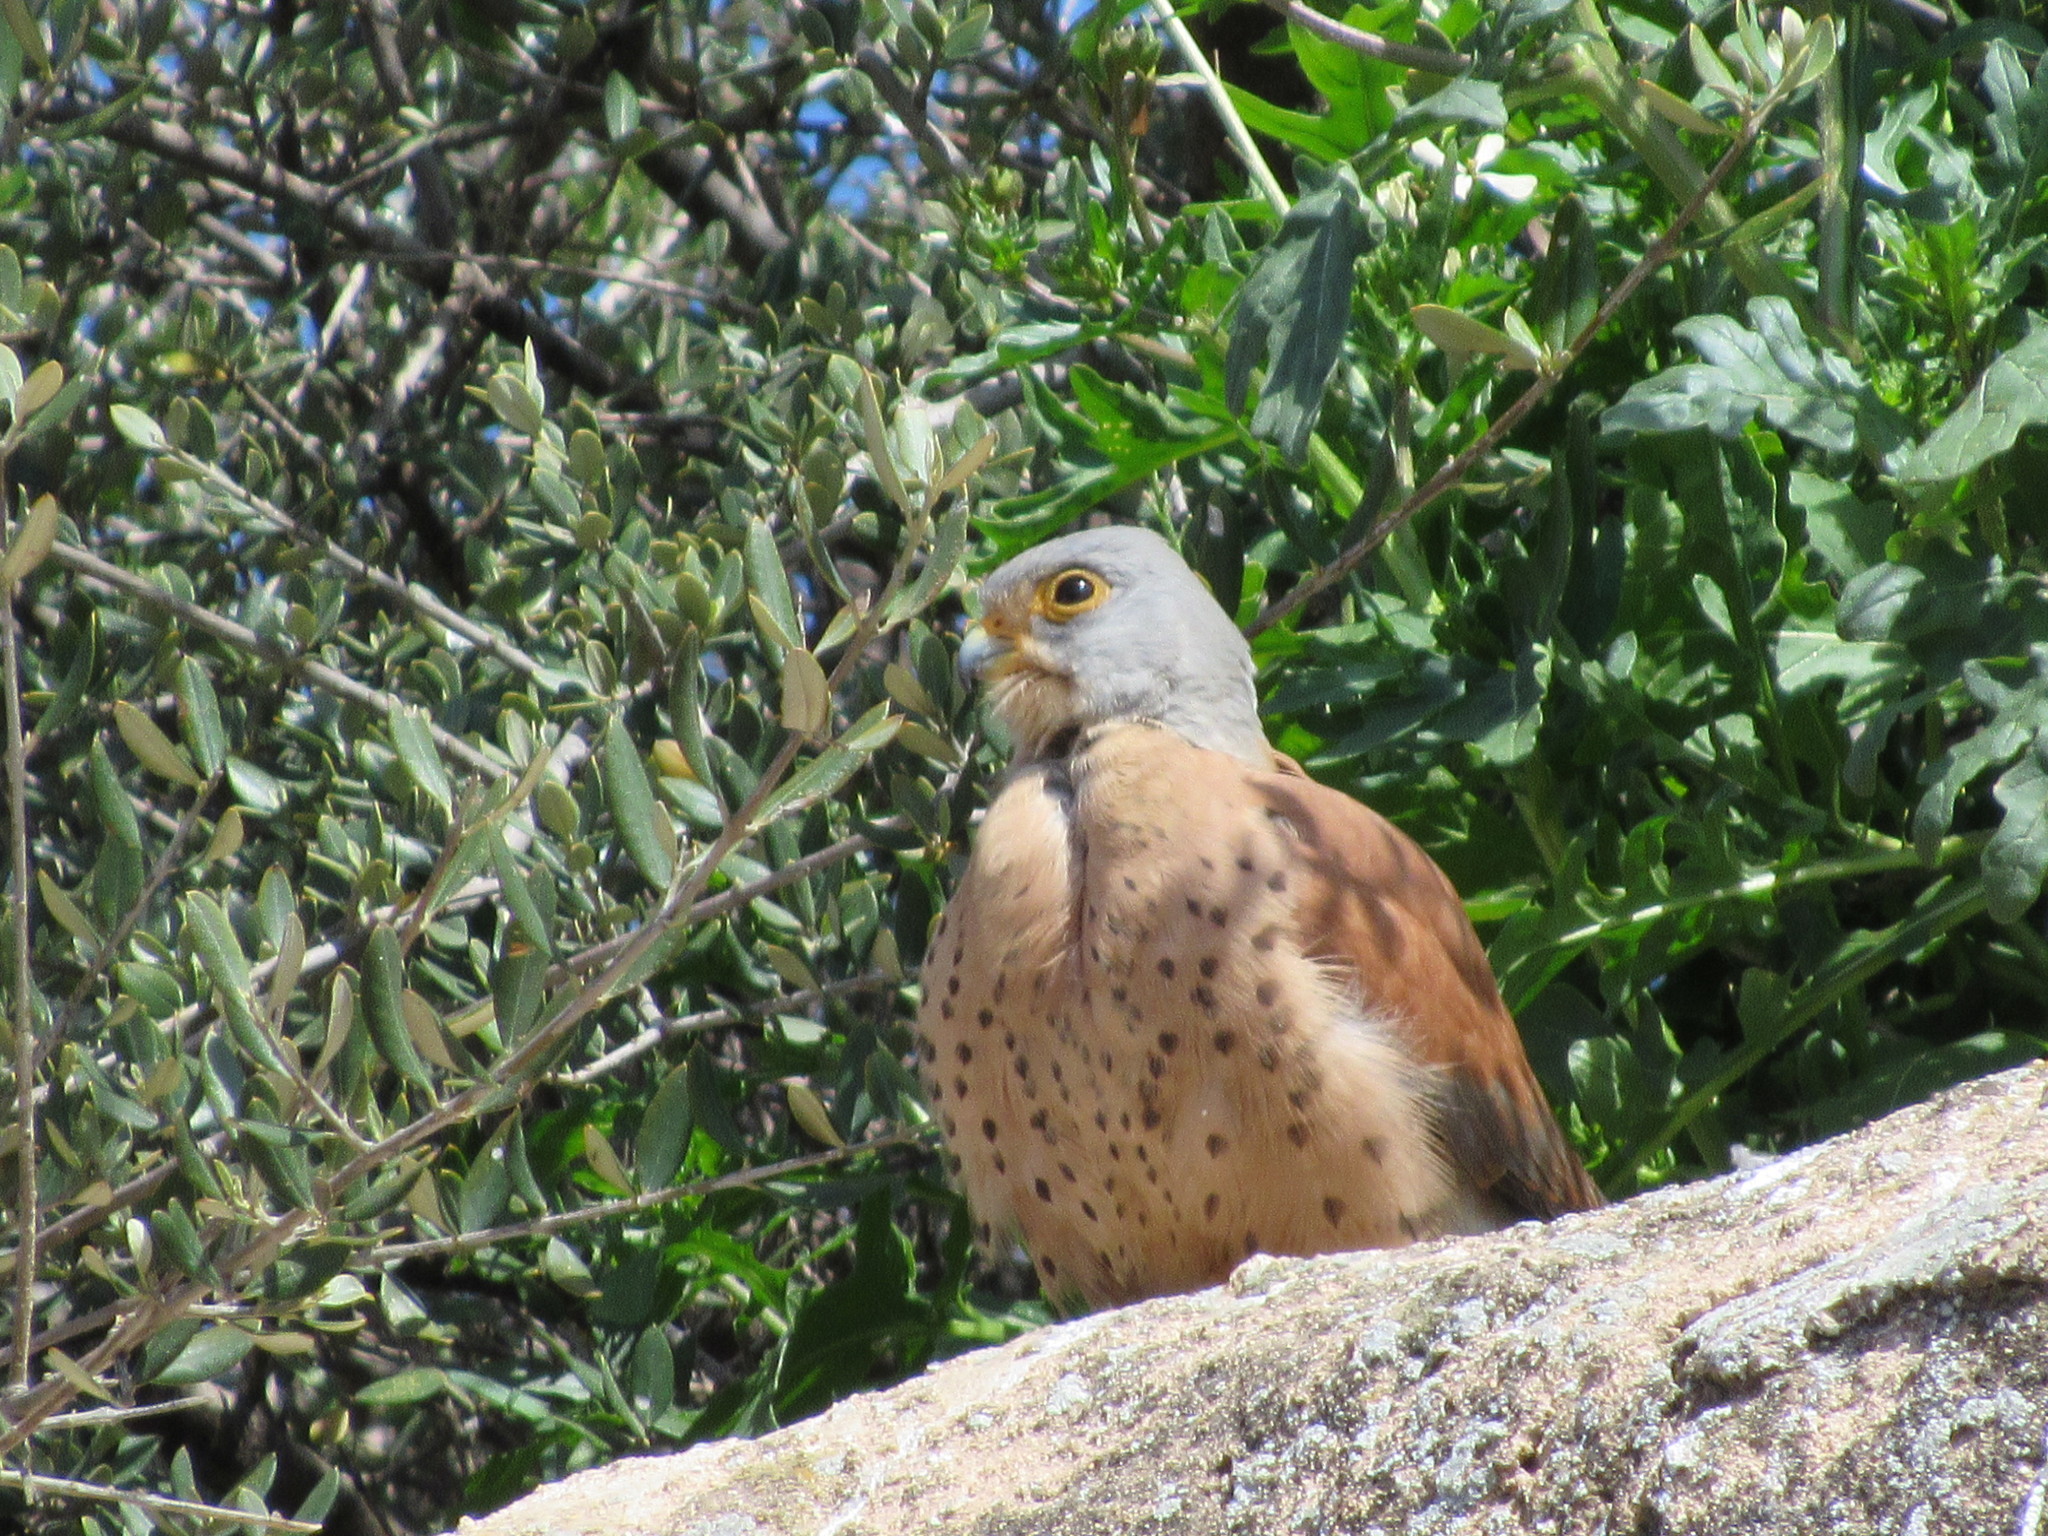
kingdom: Animalia
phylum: Chordata
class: Aves
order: Falconiformes
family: Falconidae
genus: Falco
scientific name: Falco naumanni
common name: Lesser kestrel
